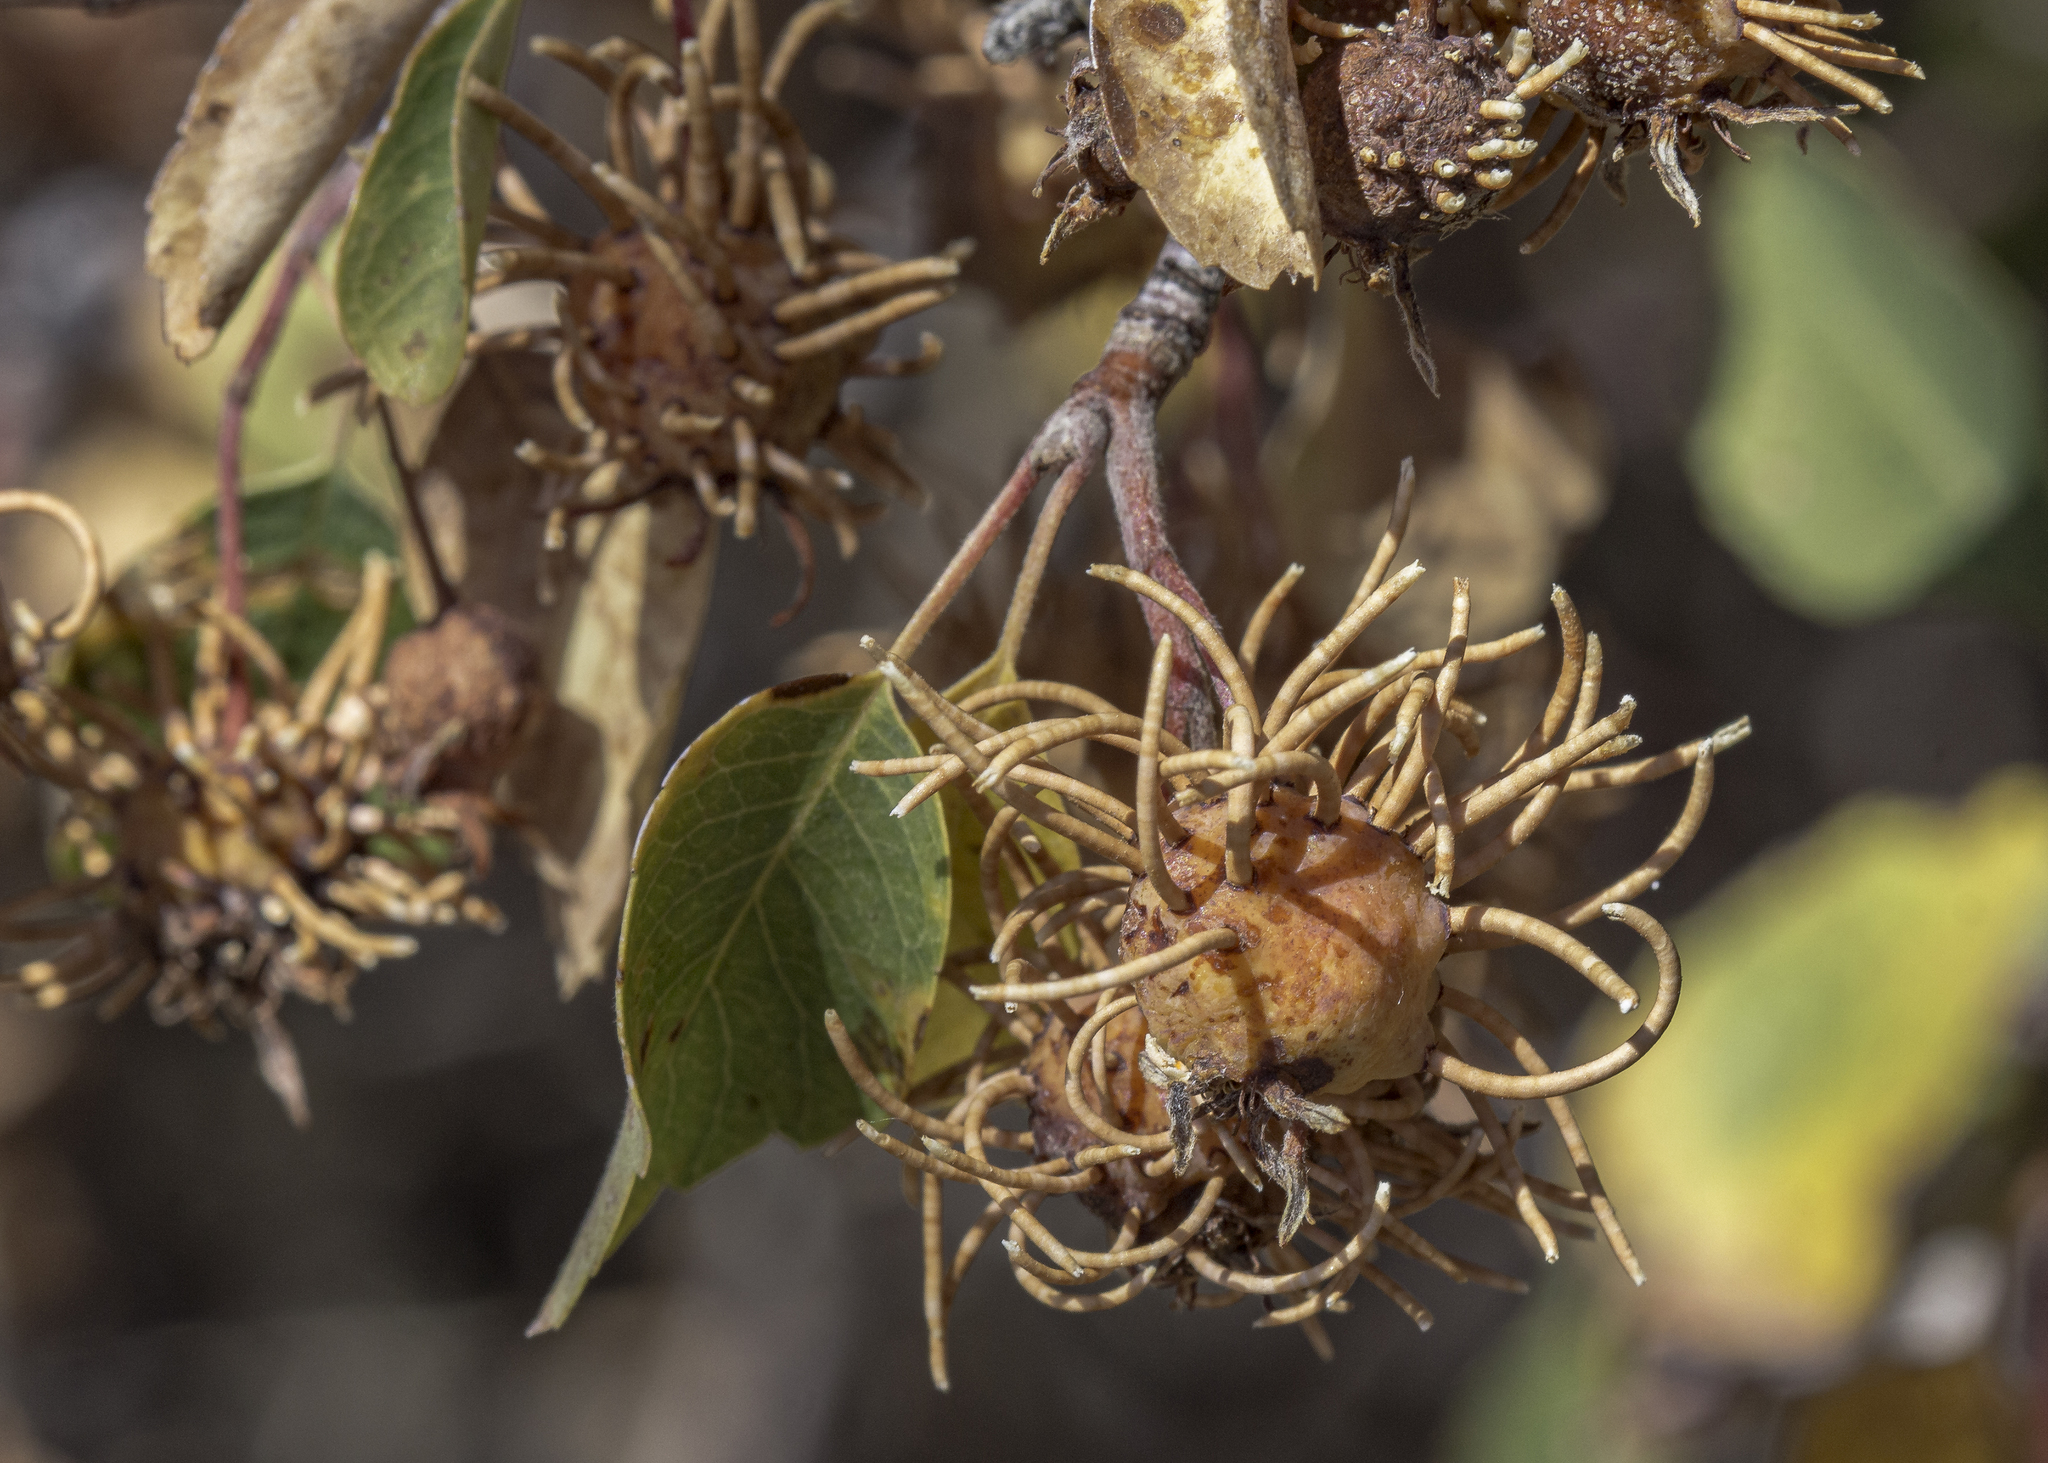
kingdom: Plantae
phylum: Tracheophyta
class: Magnoliopsida
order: Rosales
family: Rosaceae
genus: Amelanchier
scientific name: Amelanchier utahensis
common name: Utah serviceberry
